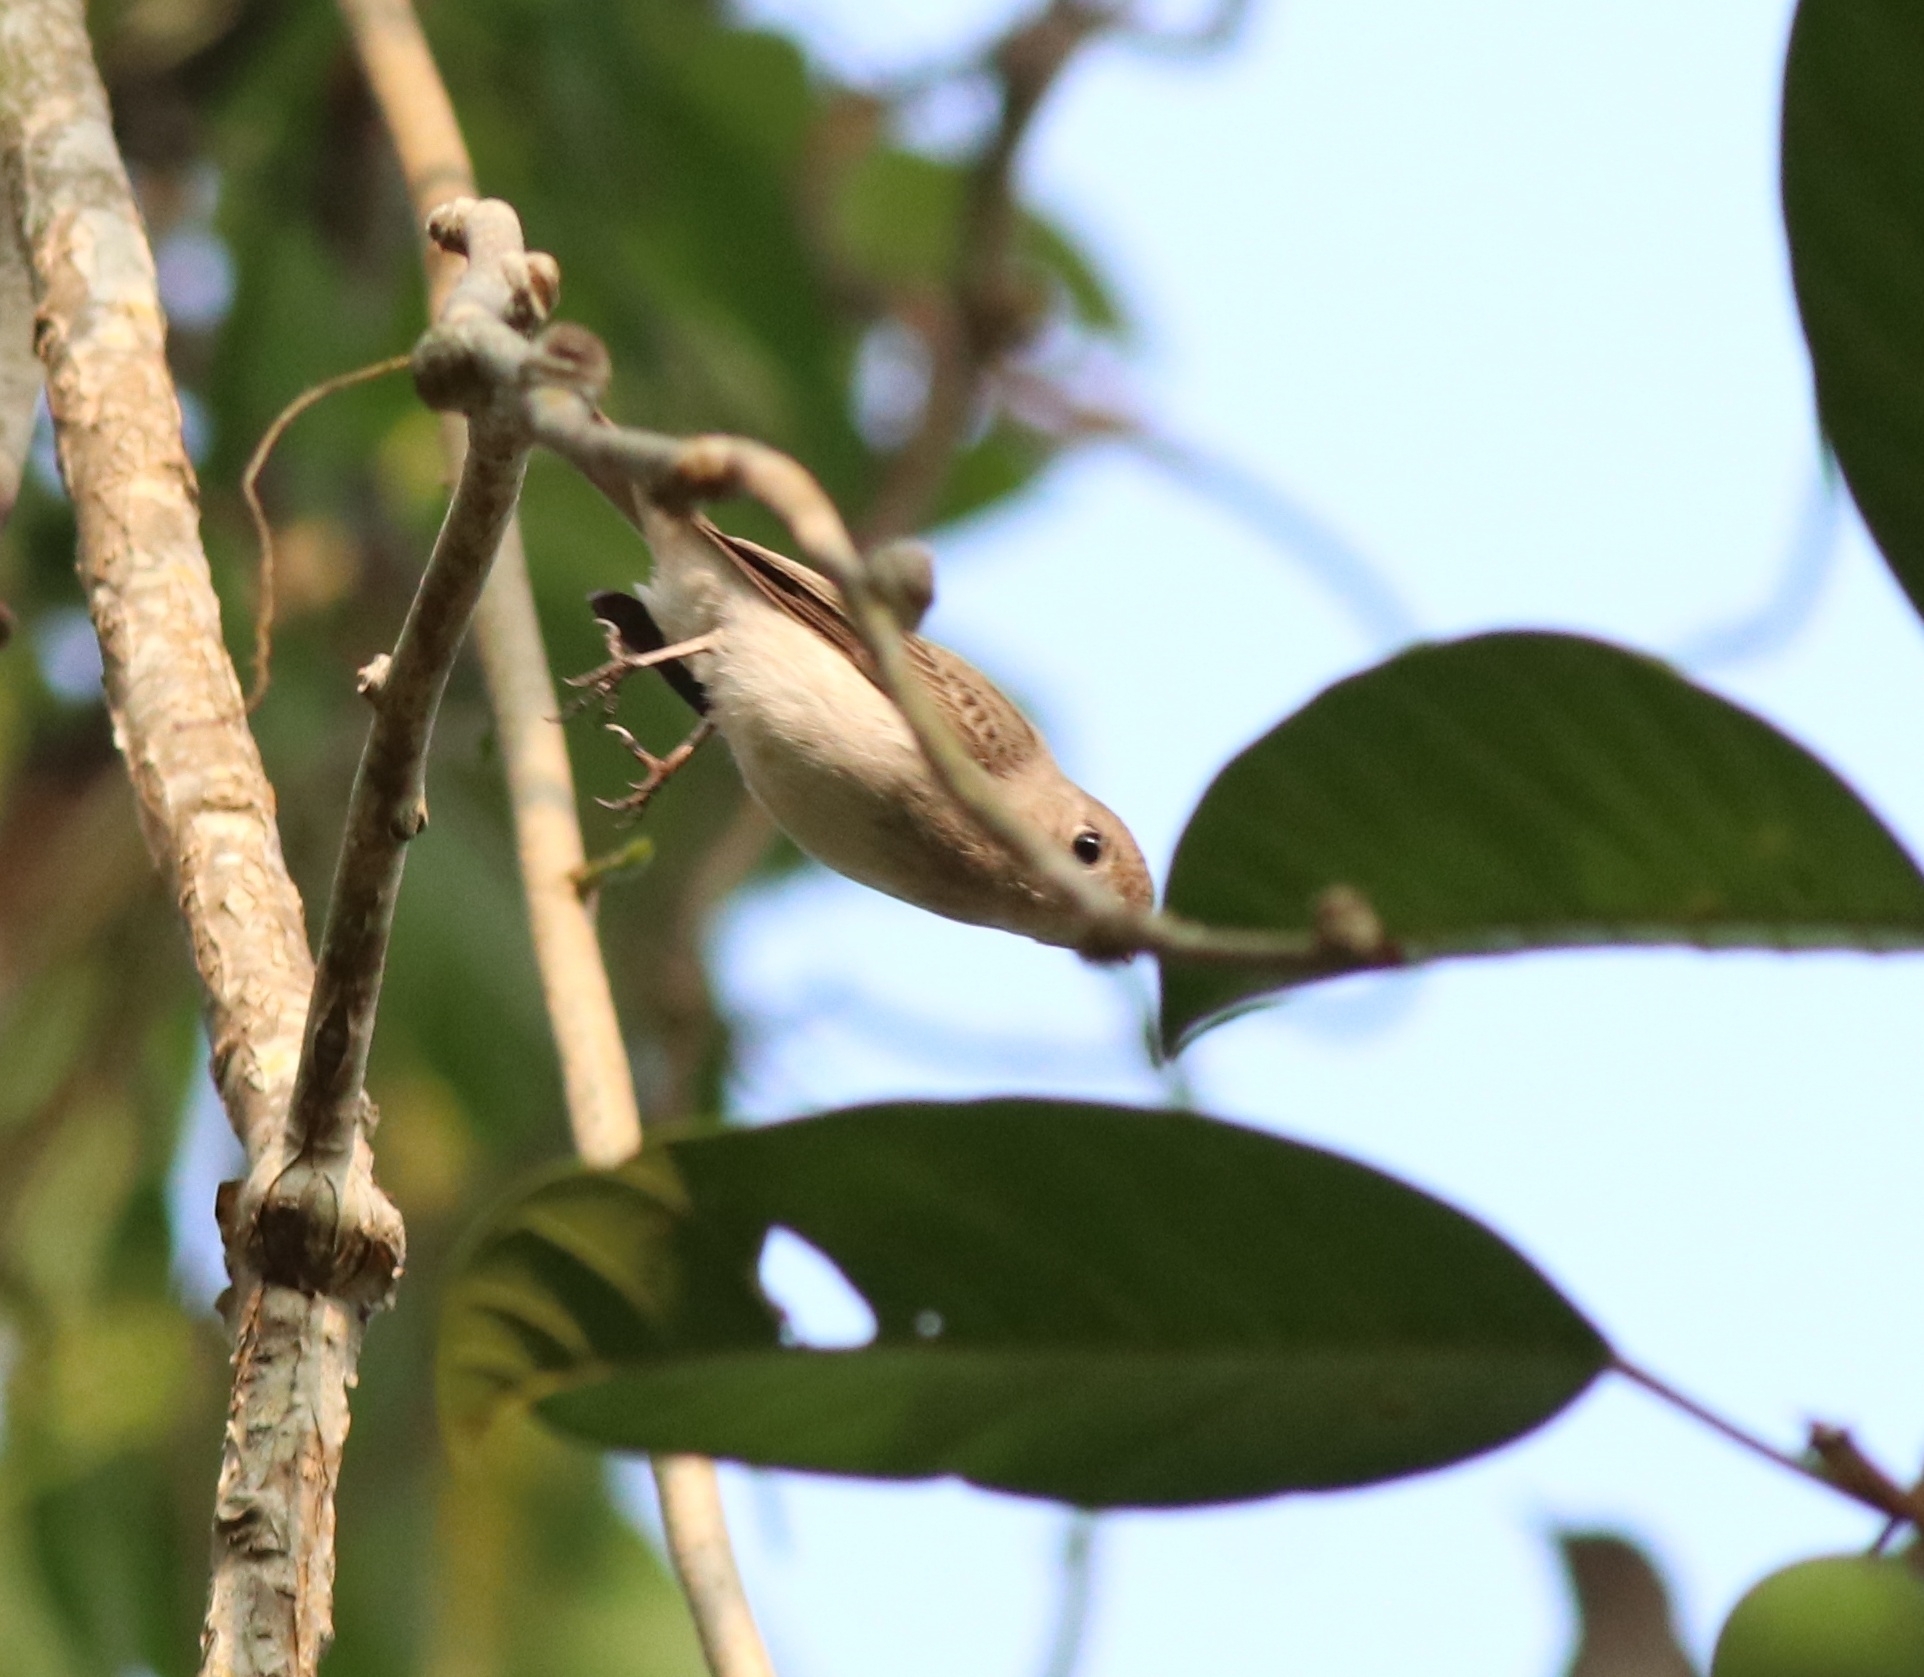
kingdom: Animalia
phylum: Chordata
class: Aves
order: Passeriformes
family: Muscicapidae
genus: Muscicapa
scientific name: Muscicapa latirostris
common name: Asian brown flycatcher
